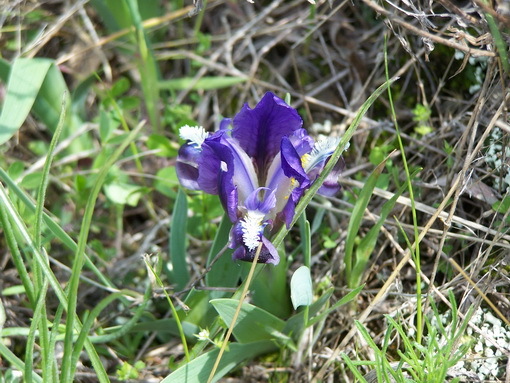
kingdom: Plantae
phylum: Tracheophyta
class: Liliopsida
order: Asparagales
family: Iridaceae
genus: Iris
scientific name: Iris pumila
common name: Dwarf iris
